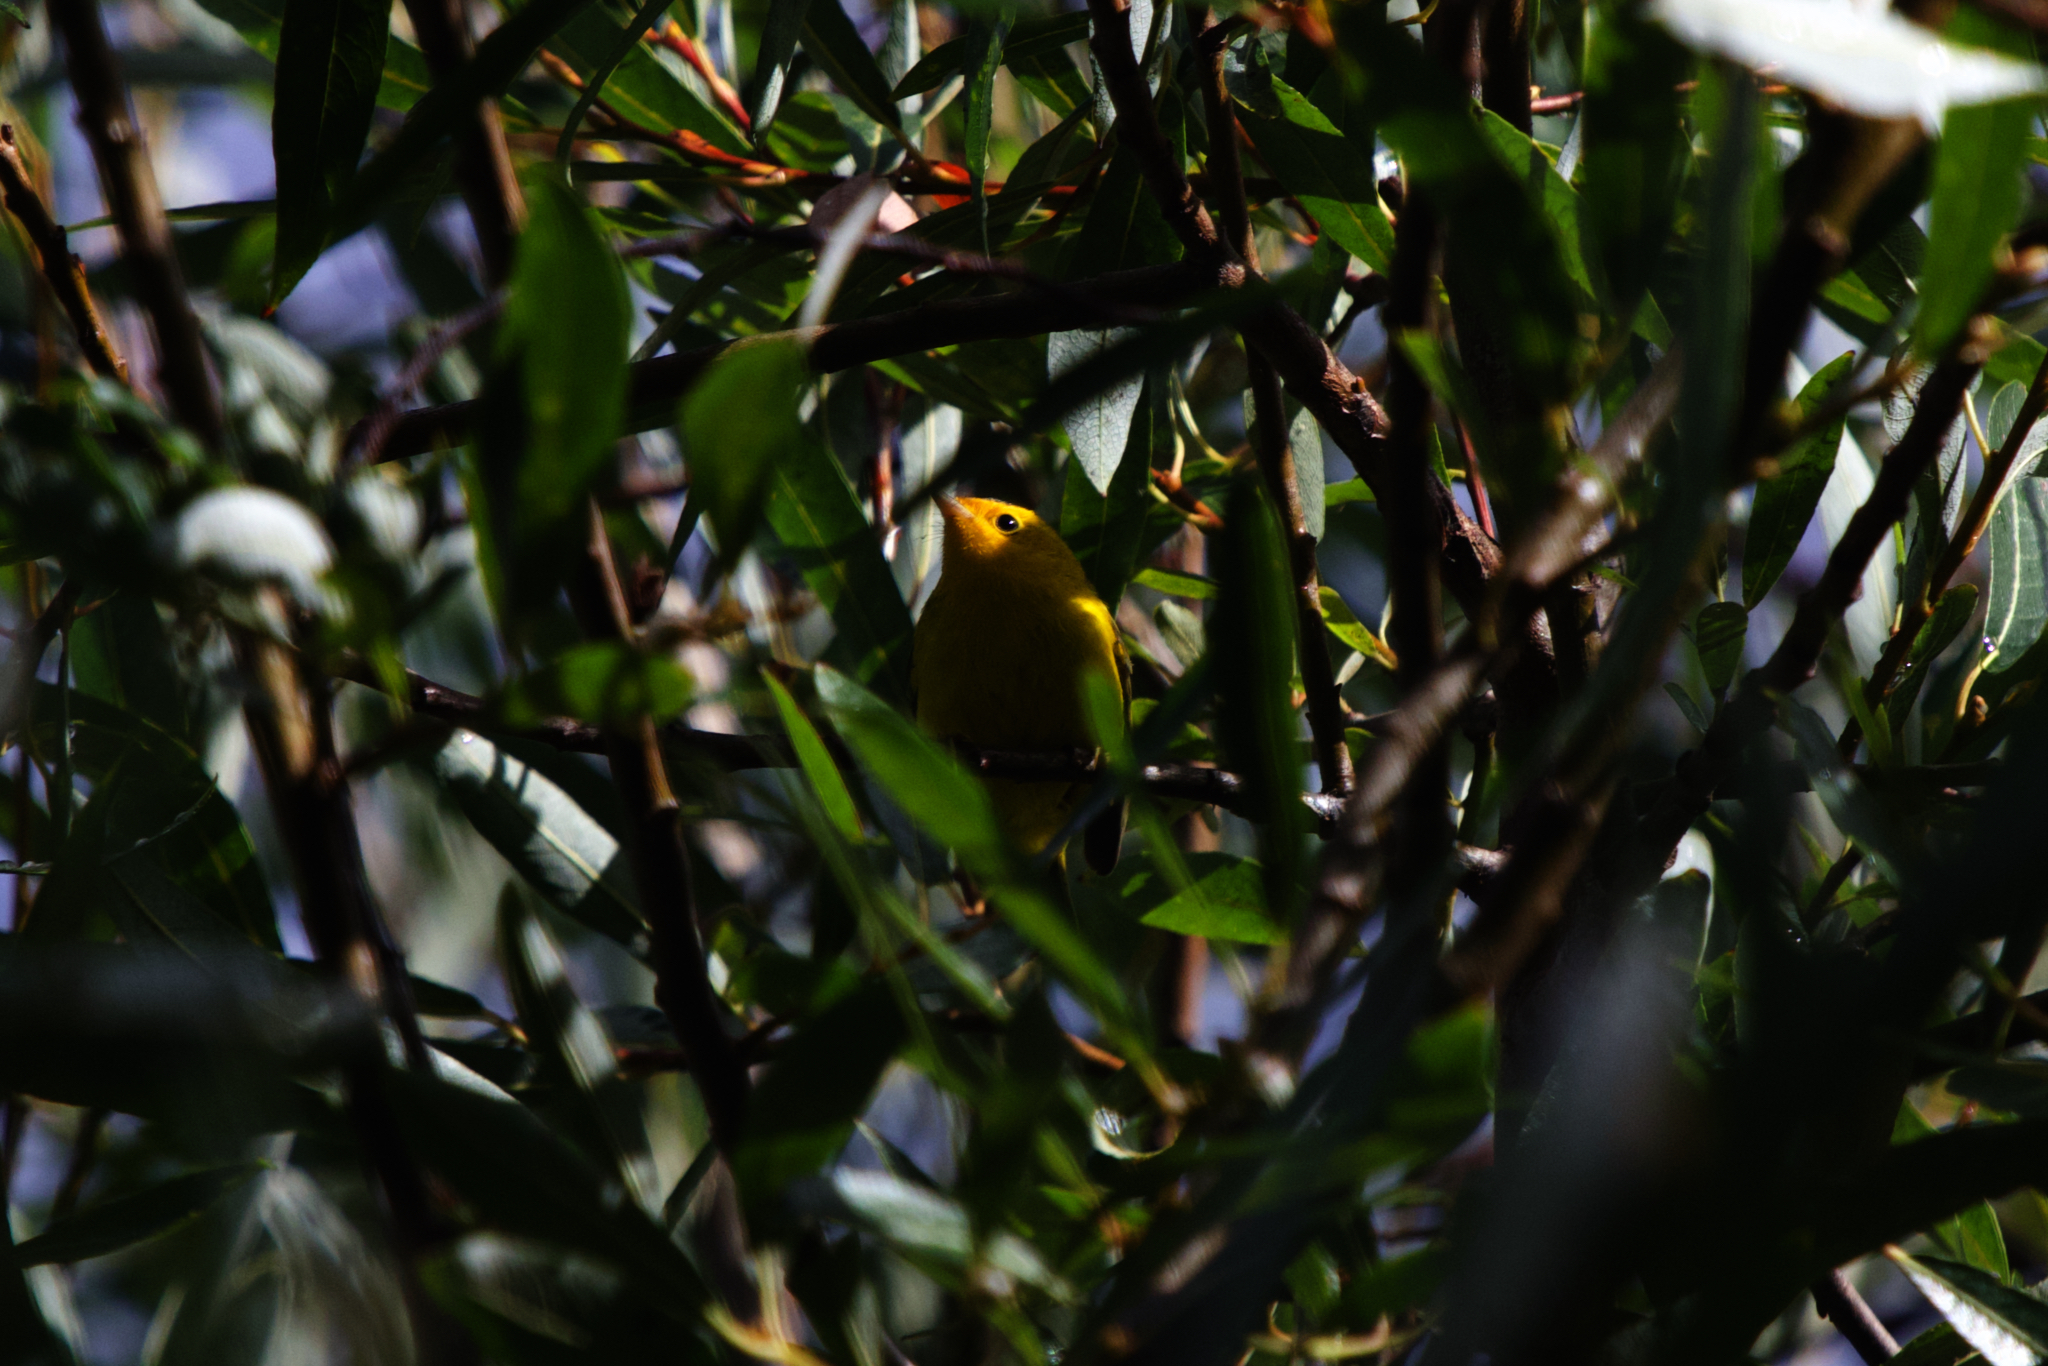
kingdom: Animalia
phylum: Chordata
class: Aves
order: Passeriformes
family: Parulidae
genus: Cardellina
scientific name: Cardellina pusilla
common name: Wilson's warbler
